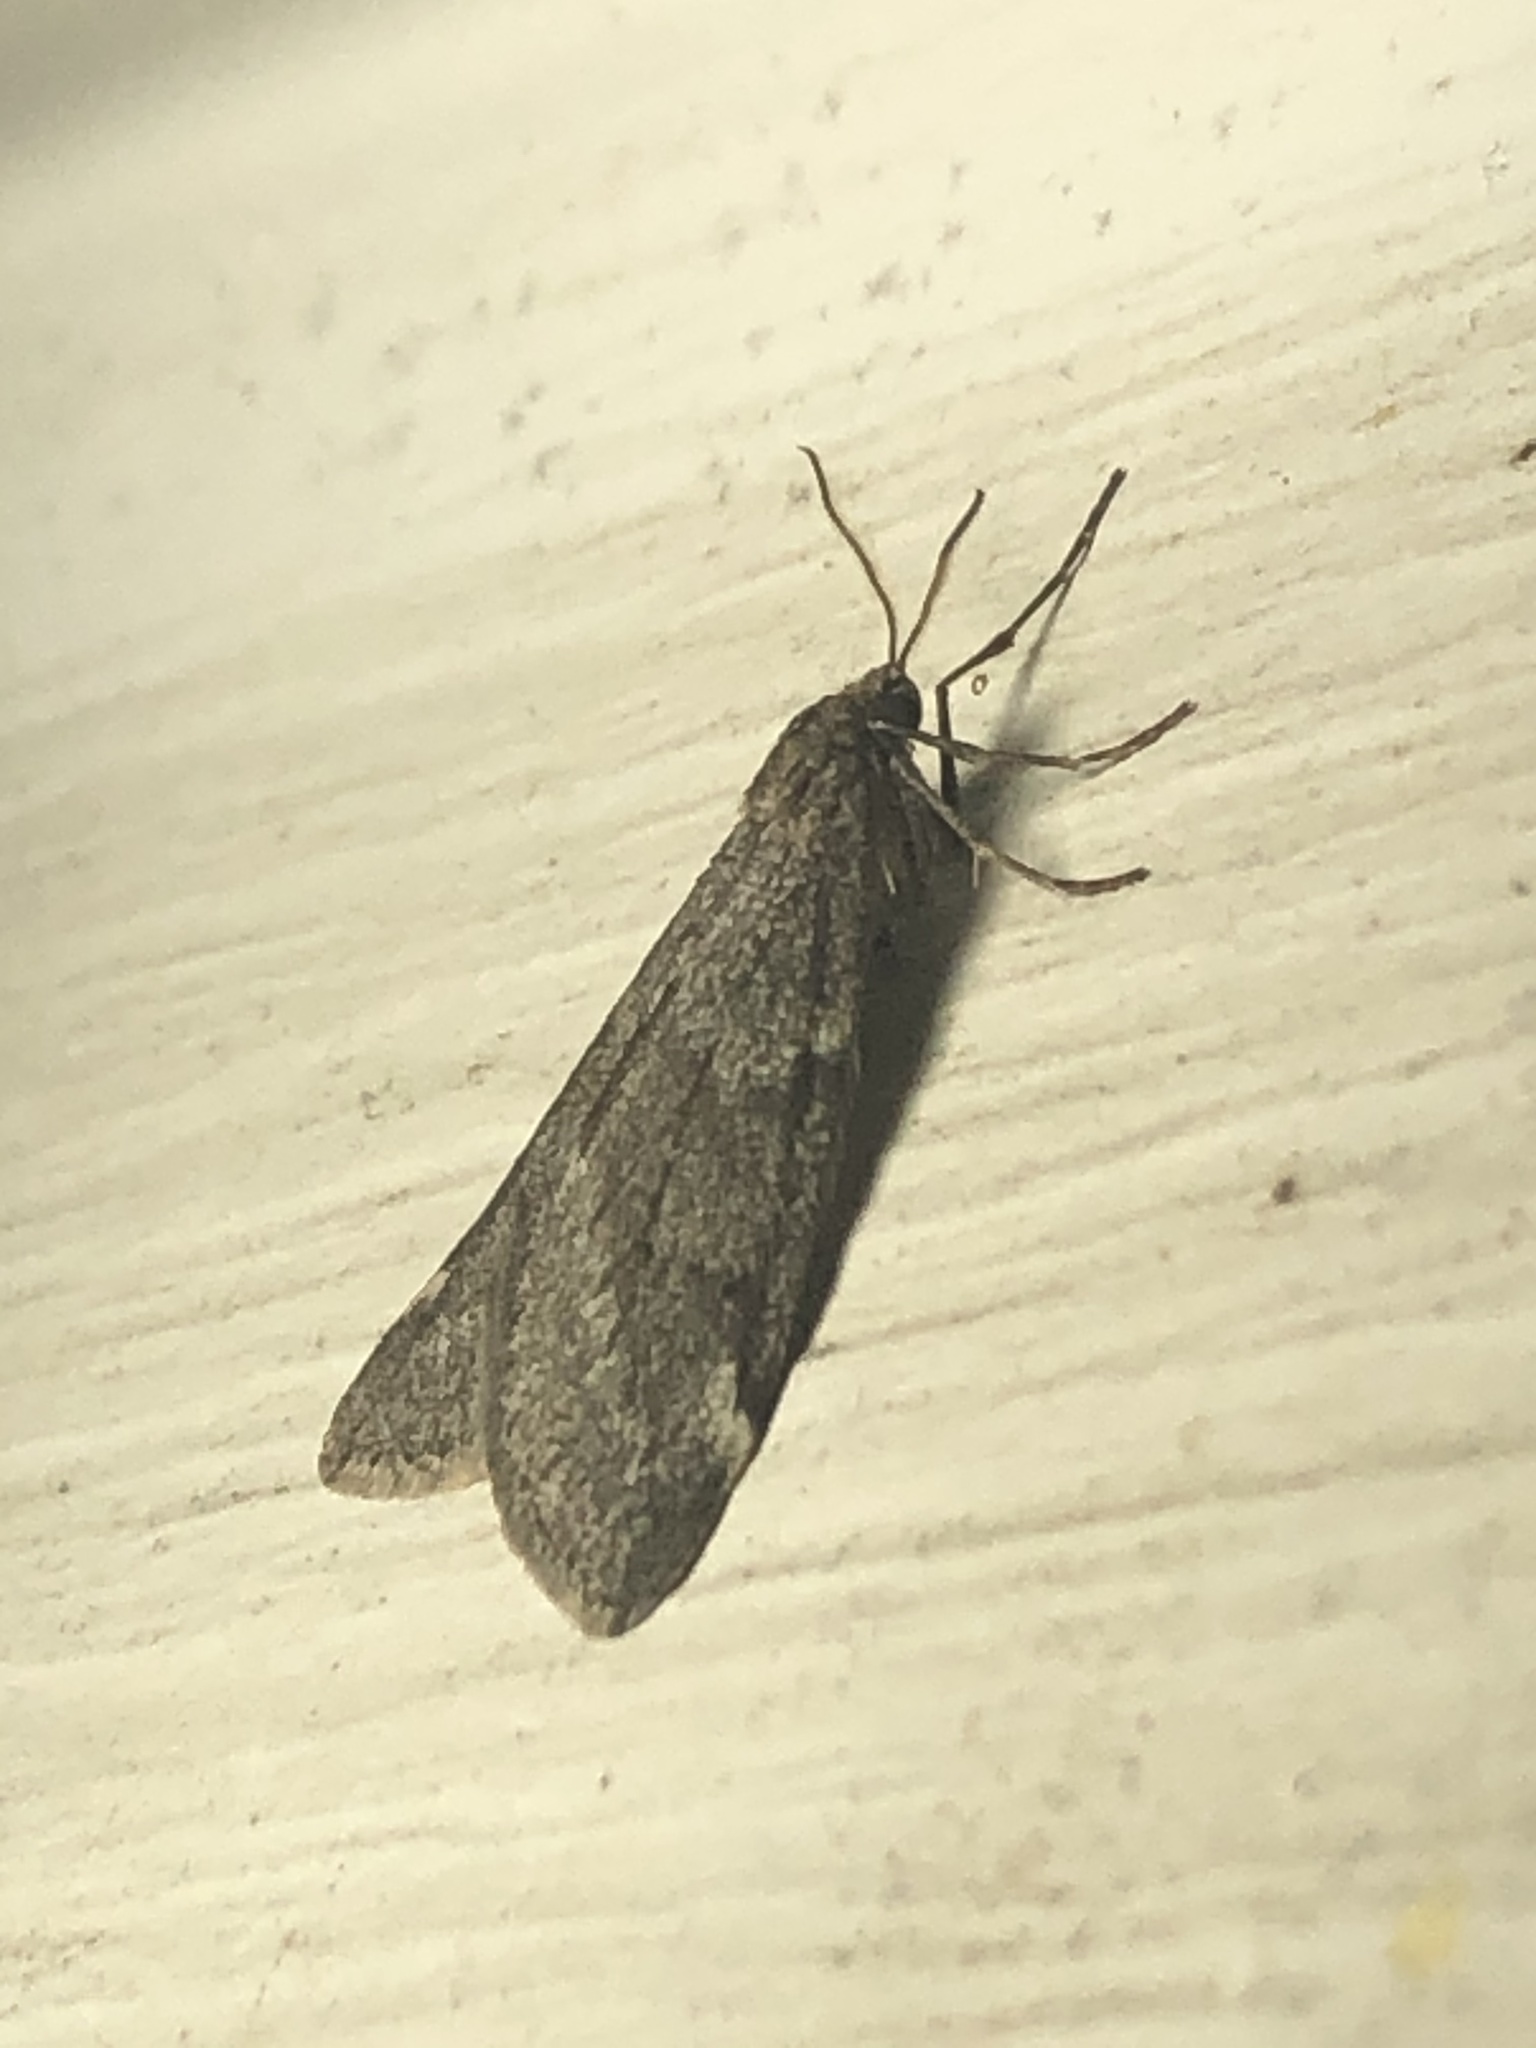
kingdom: Animalia
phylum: Arthropoda
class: Insecta
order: Lepidoptera
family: Geometridae
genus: Alsophila
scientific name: Alsophila pometaria
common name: Fall cankerworm
